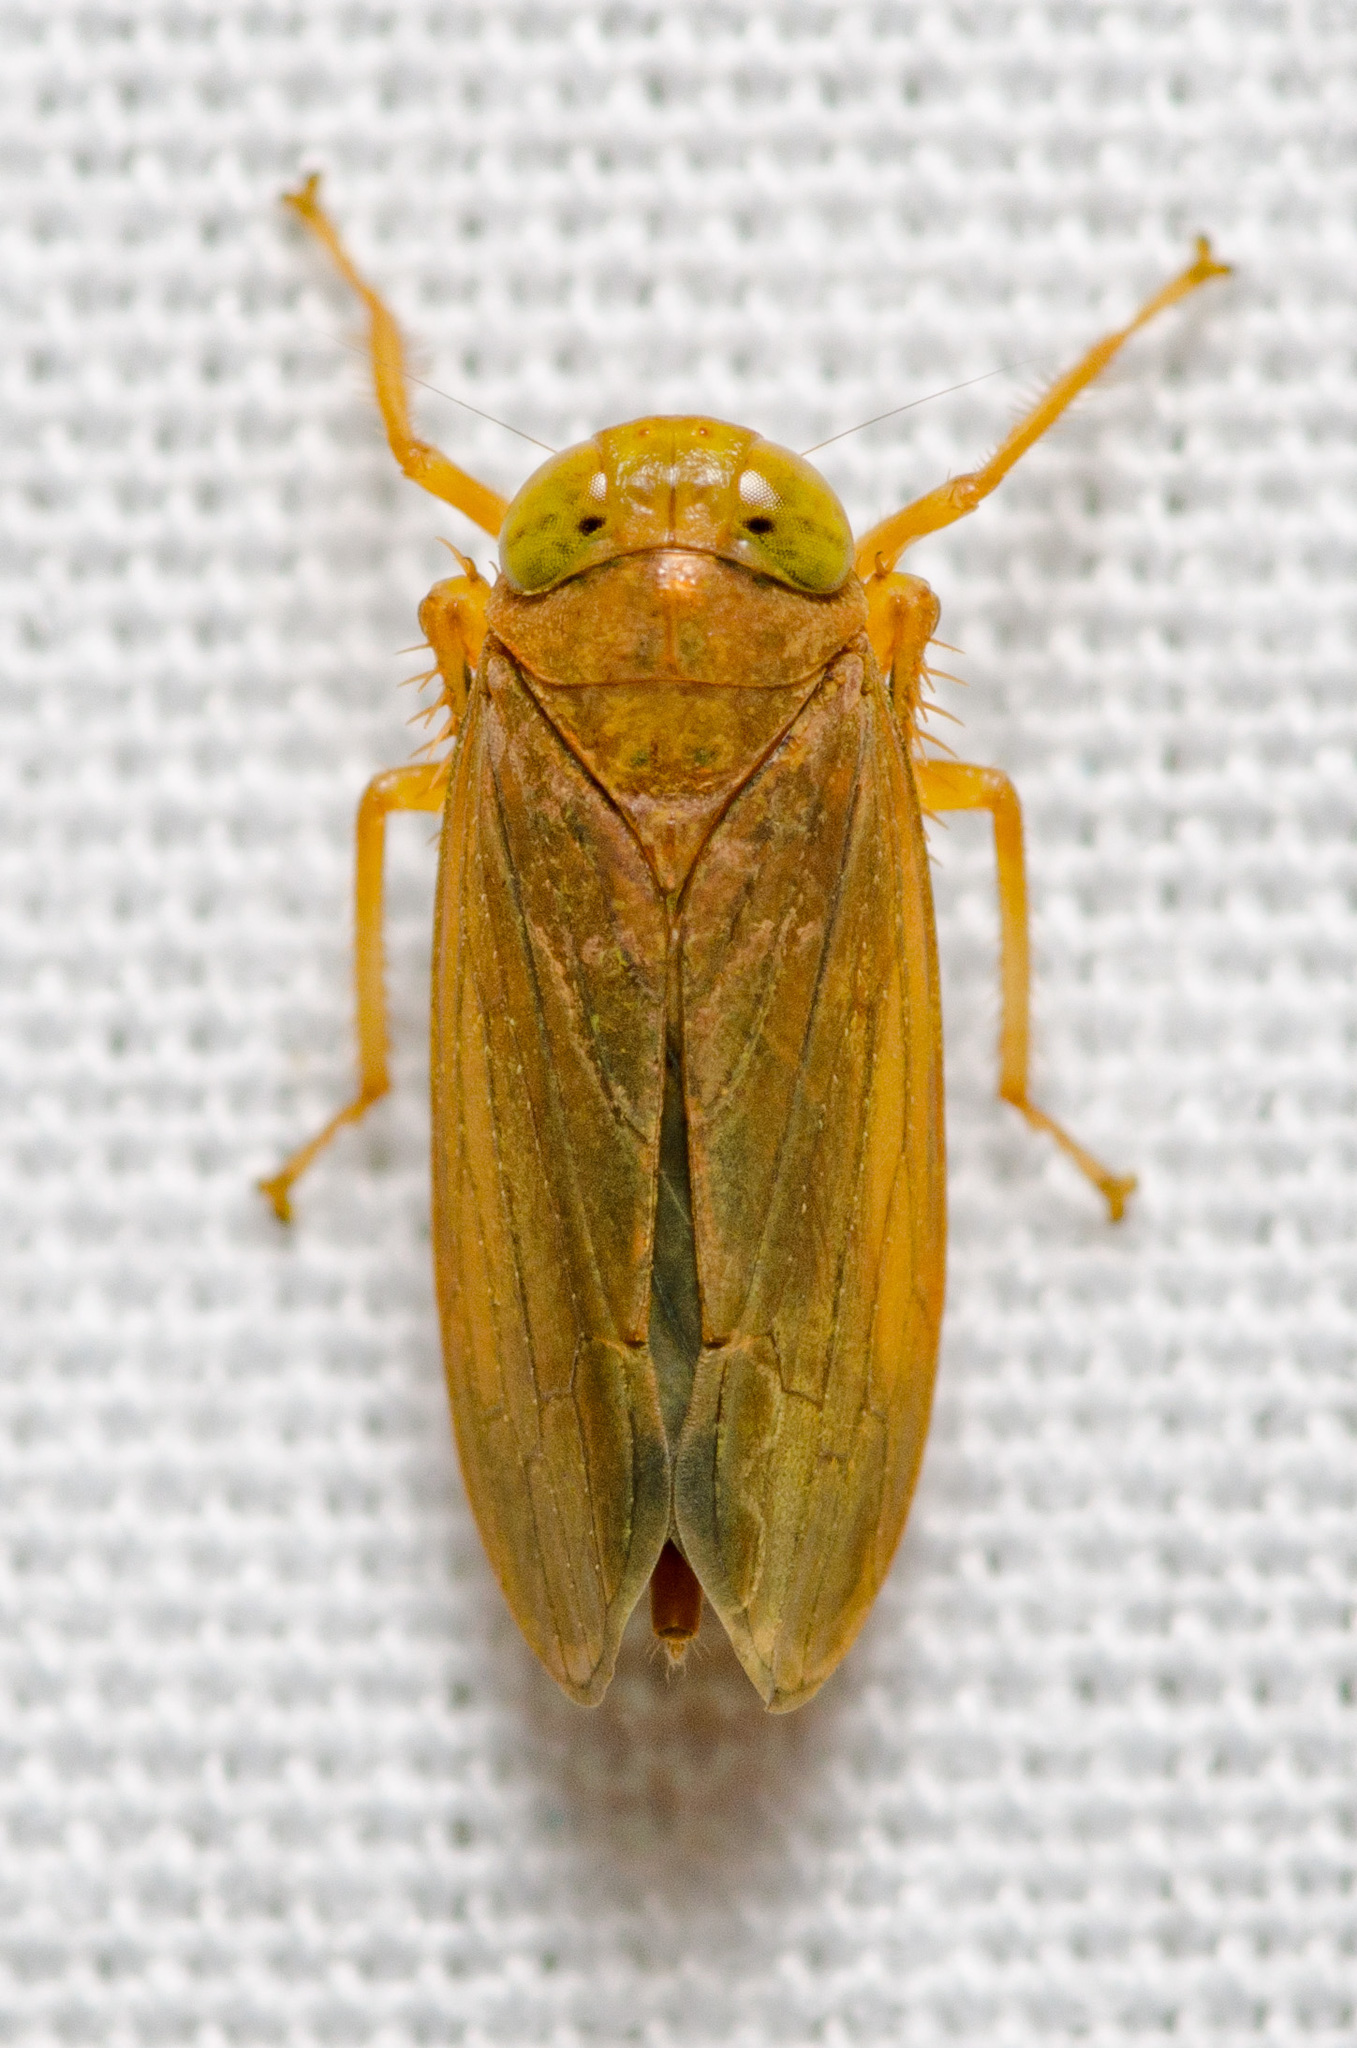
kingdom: Animalia
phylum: Arthropoda
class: Insecta
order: Hemiptera
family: Cicadellidae
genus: Jikradia
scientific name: Jikradia olitoria
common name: Coppery leafhopper
